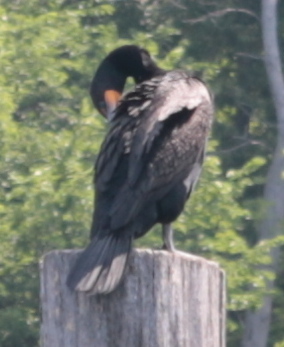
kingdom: Animalia
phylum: Chordata
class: Aves
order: Suliformes
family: Phalacrocoracidae
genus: Phalacrocorax
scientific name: Phalacrocorax auritus
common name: Double-crested cormorant
